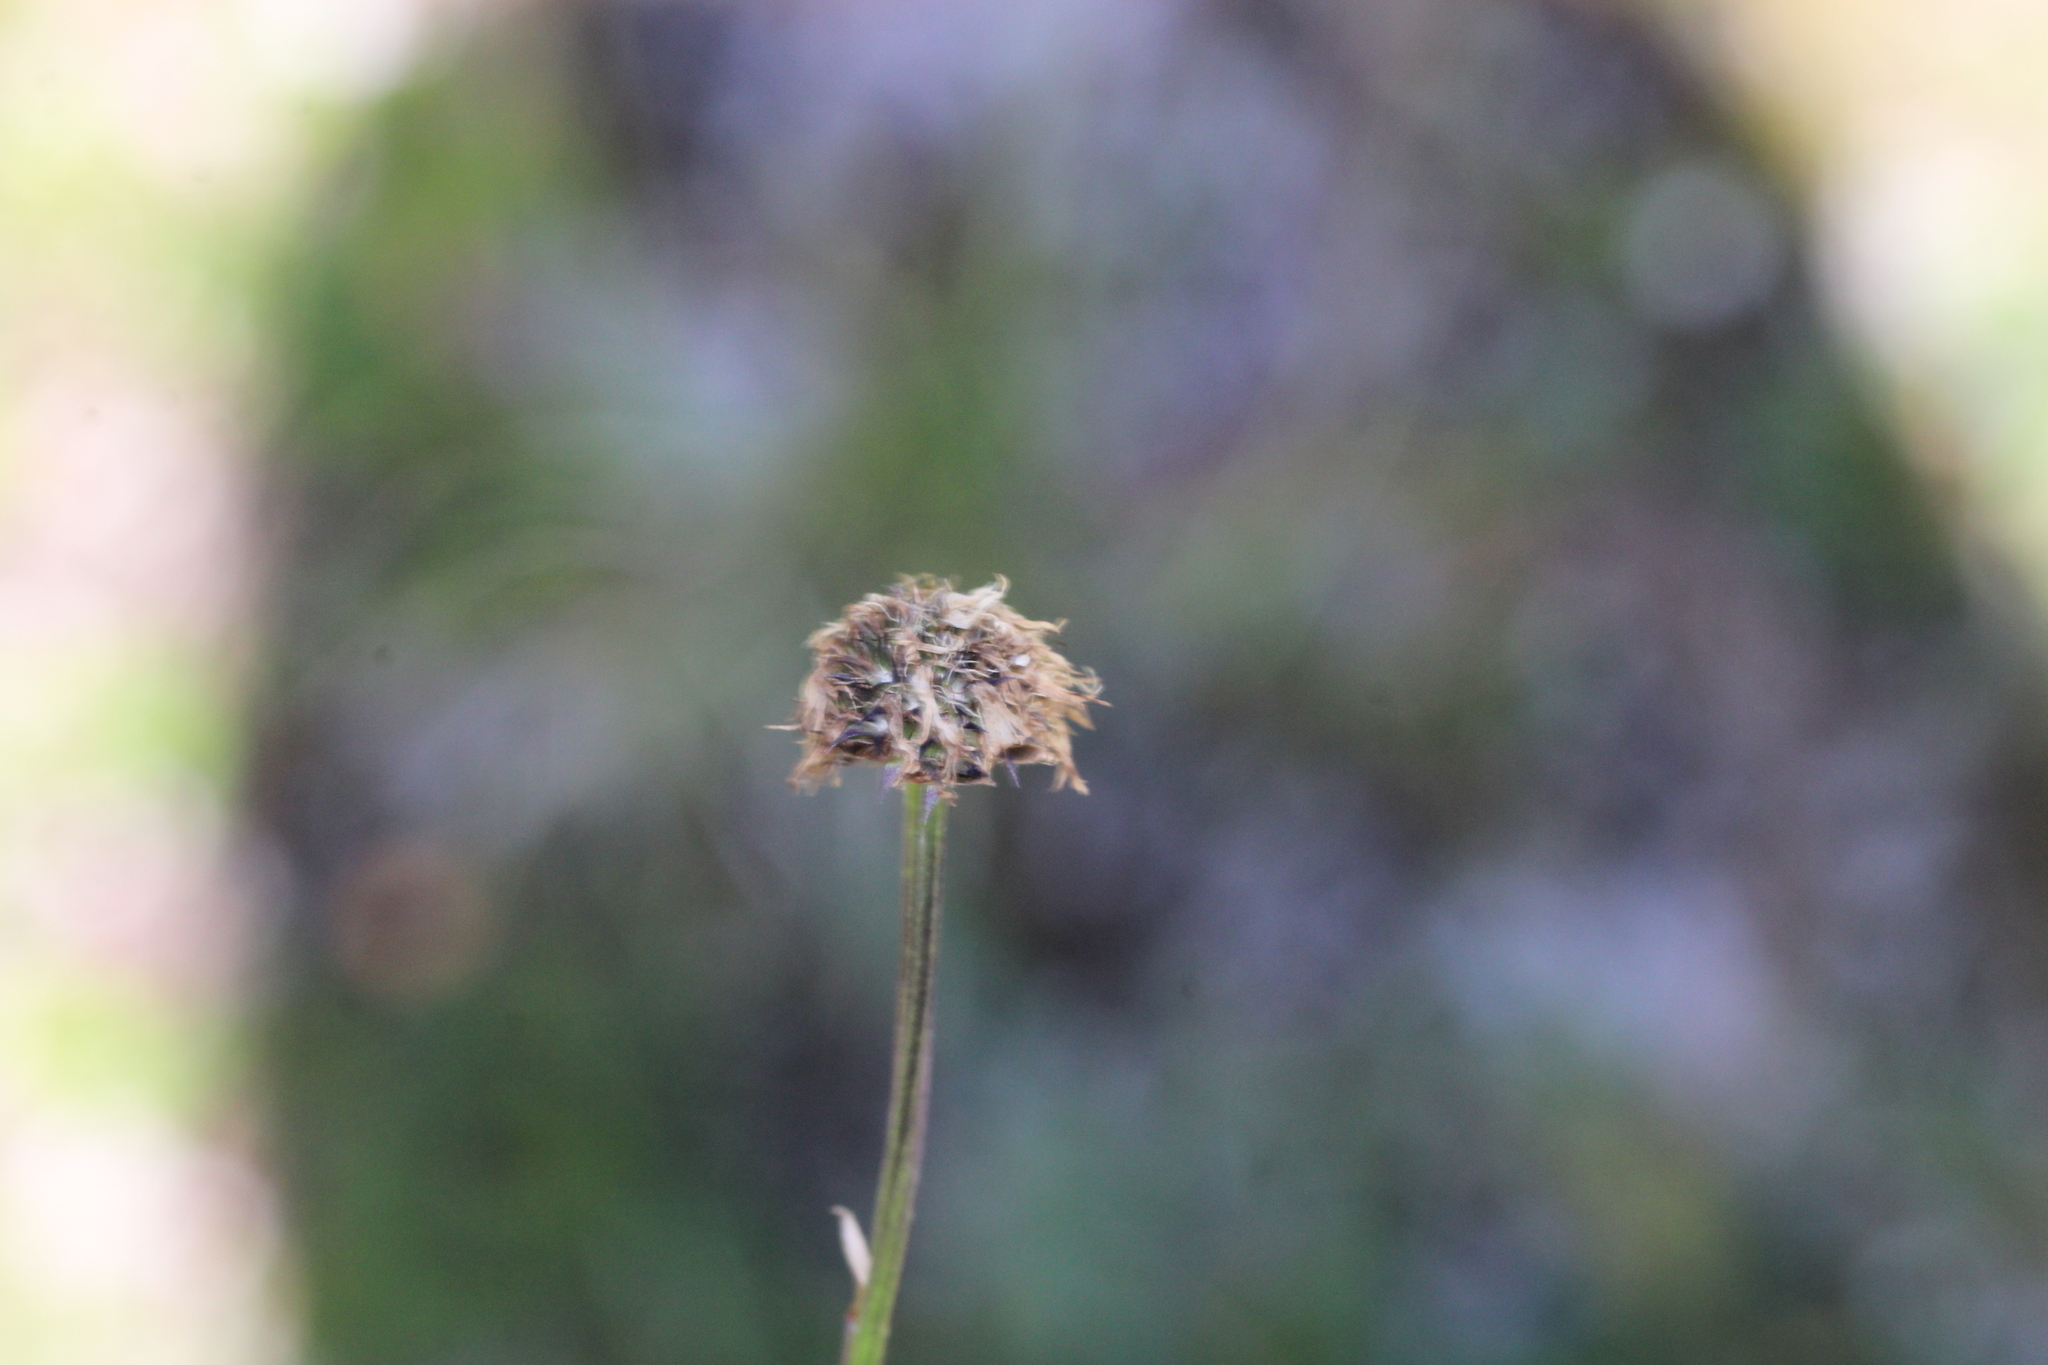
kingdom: Plantae
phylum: Tracheophyta
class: Magnoliopsida
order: Lamiales
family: Plantaginaceae
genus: Globularia
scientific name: Globularia cordifolia
